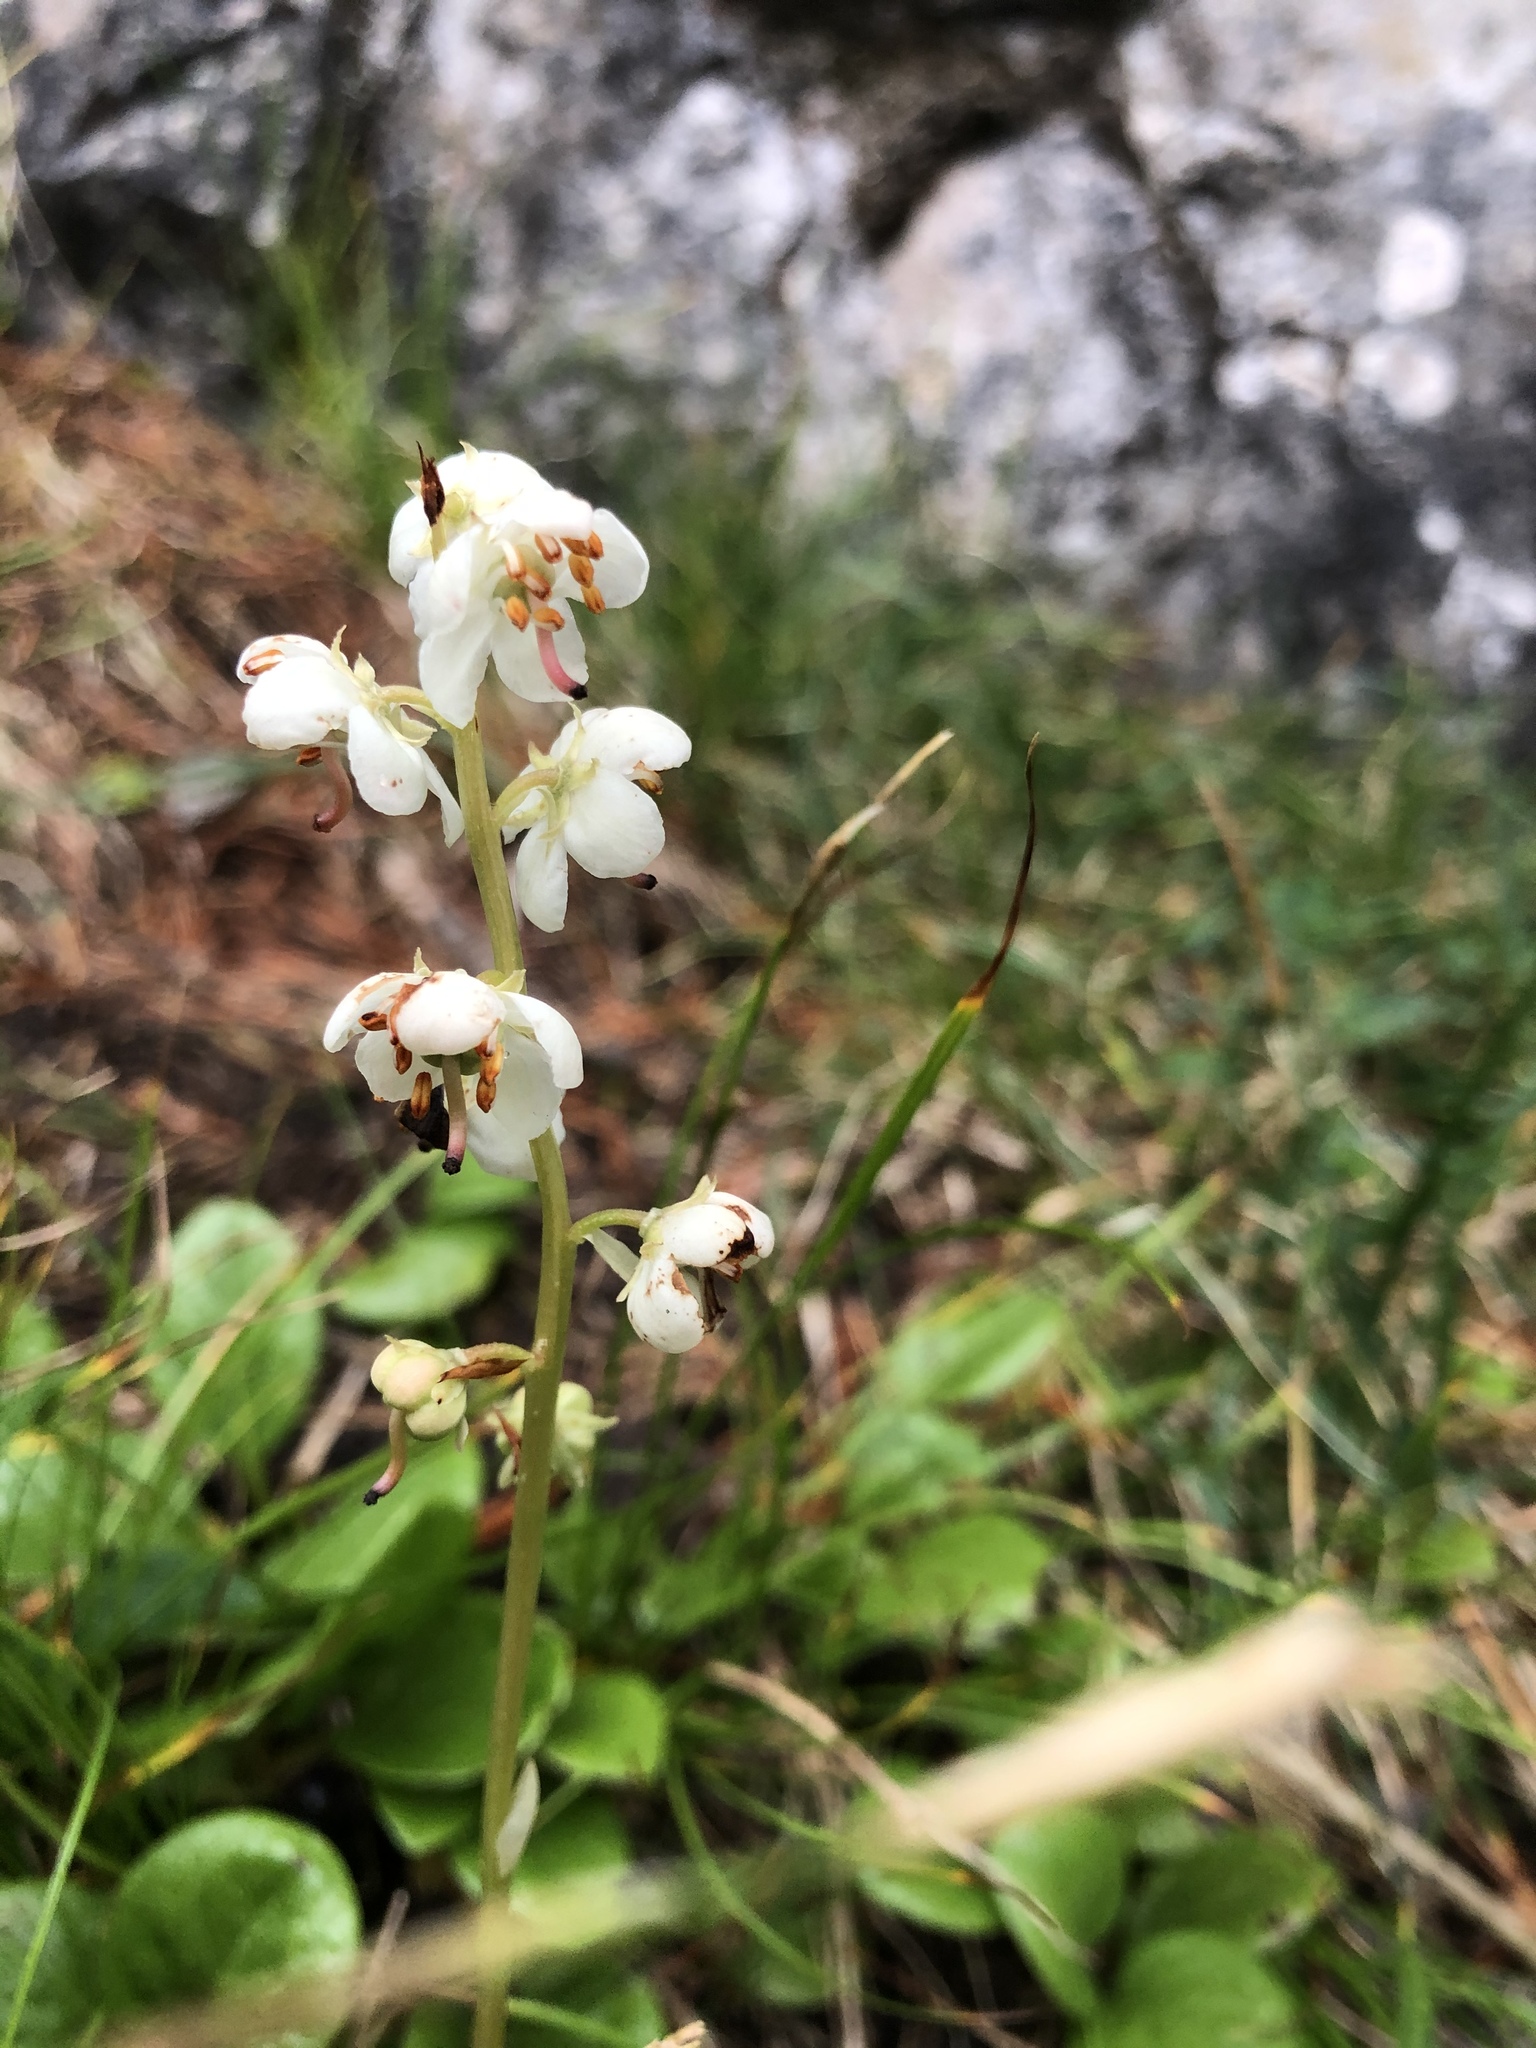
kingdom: Plantae
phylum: Tracheophyta
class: Magnoliopsida
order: Ericales
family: Ericaceae
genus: Pyrola
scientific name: Pyrola rotundifolia
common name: Round-leaved wintergreen
